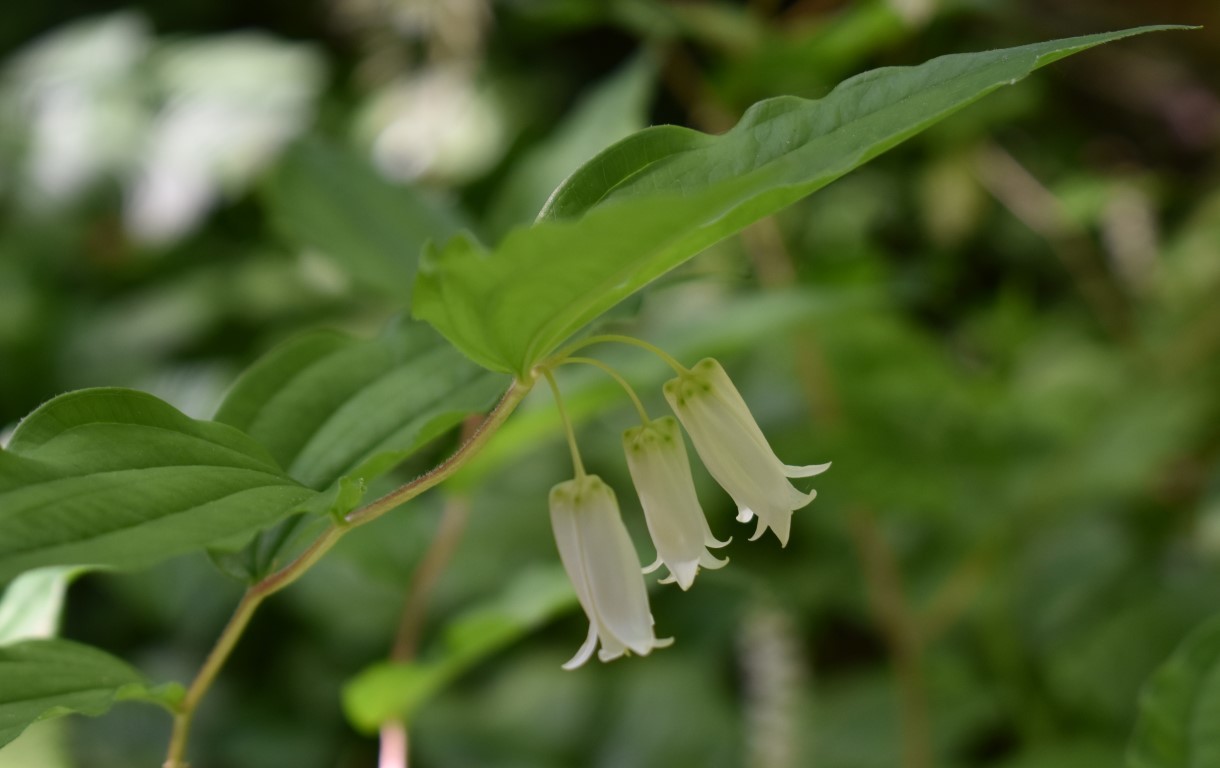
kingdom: Plantae
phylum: Tracheophyta
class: Liliopsida
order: Liliales
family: Liliaceae
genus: Prosartes
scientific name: Prosartes smithii
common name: Fairy-lantern
